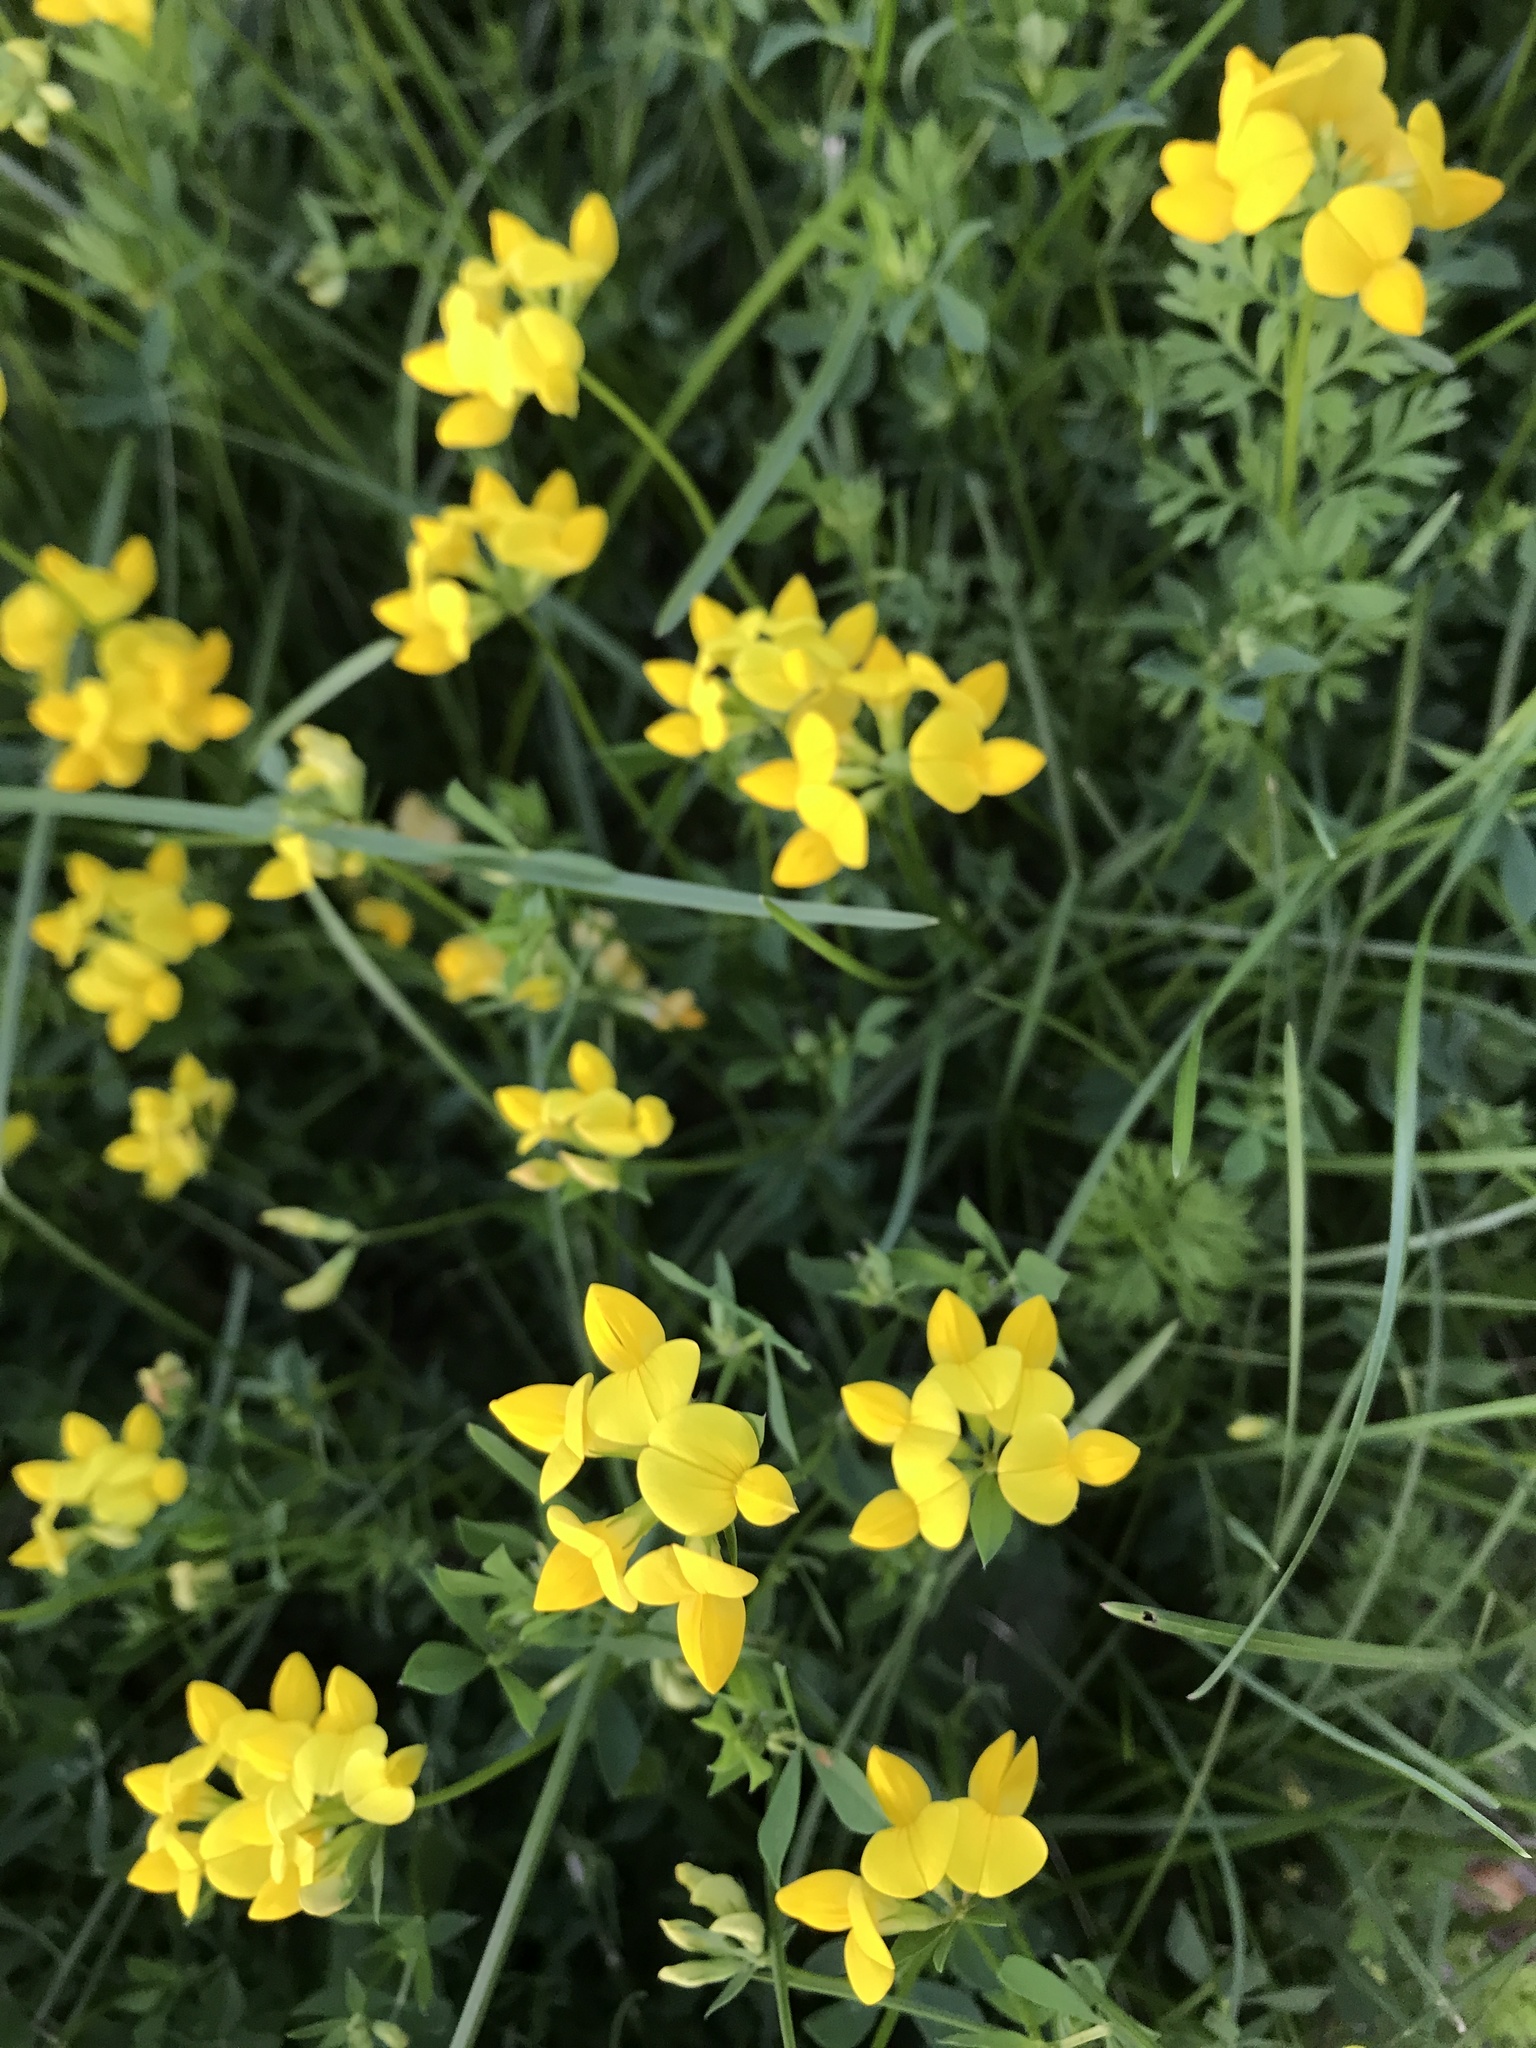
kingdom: Plantae
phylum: Tracheophyta
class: Magnoliopsida
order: Fabales
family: Fabaceae
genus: Lotus
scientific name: Lotus corniculatus
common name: Common bird's-foot-trefoil
